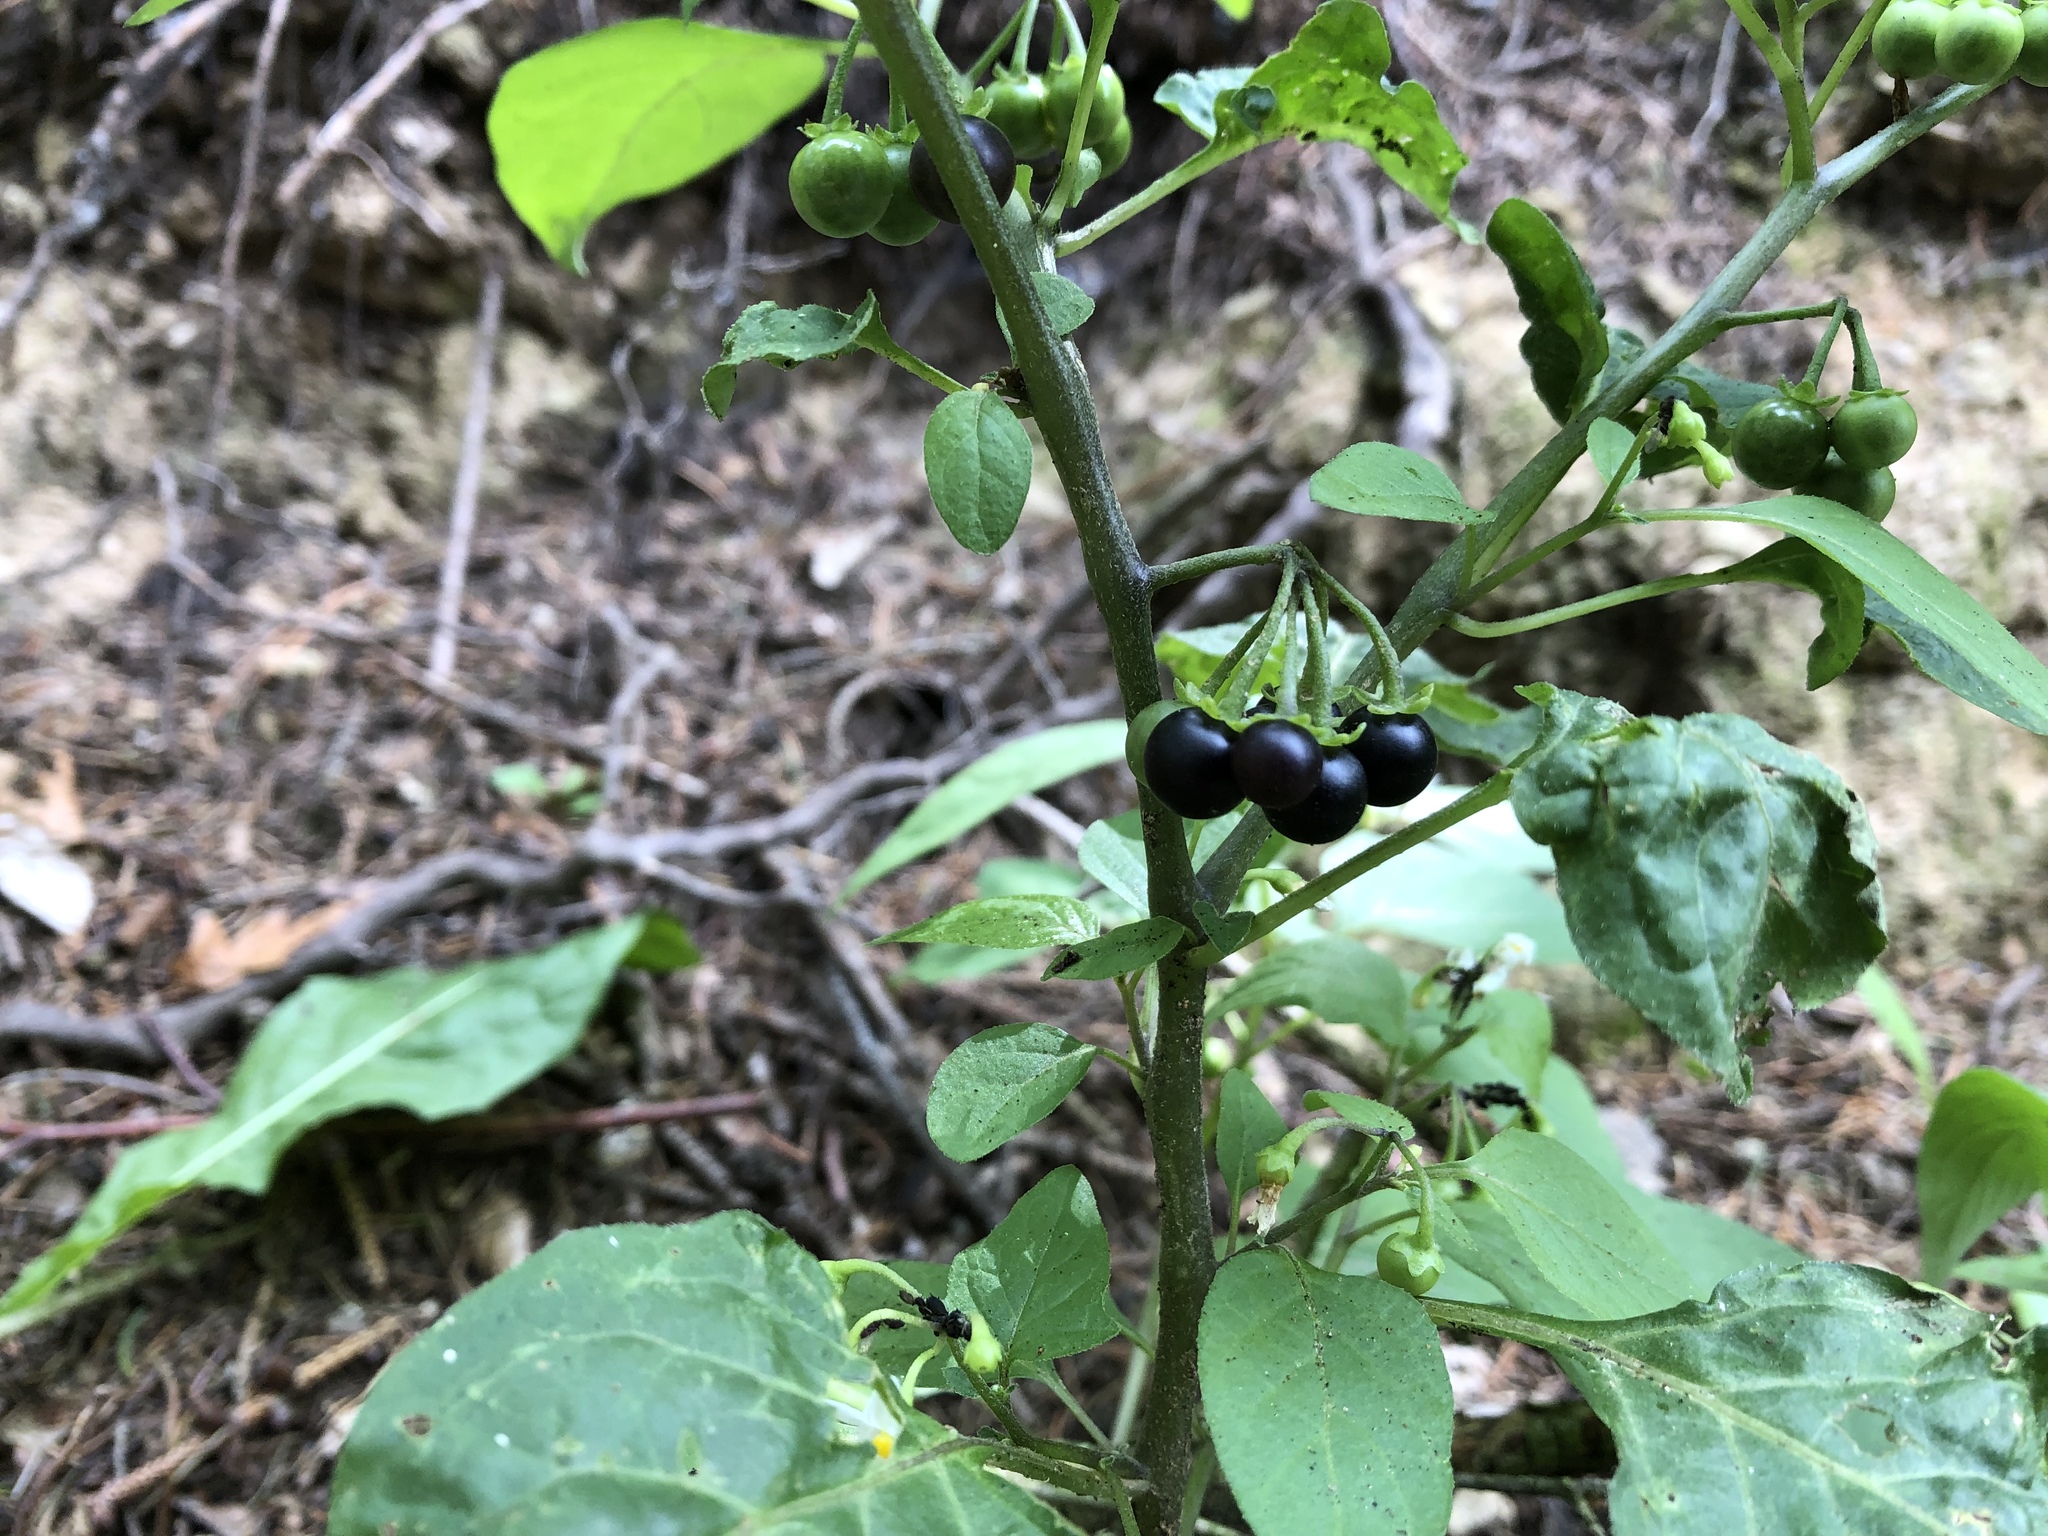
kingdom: Plantae
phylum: Tracheophyta
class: Magnoliopsida
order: Solanales
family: Solanaceae
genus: Solanum
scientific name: Solanum nigrum
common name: Black nightshade
